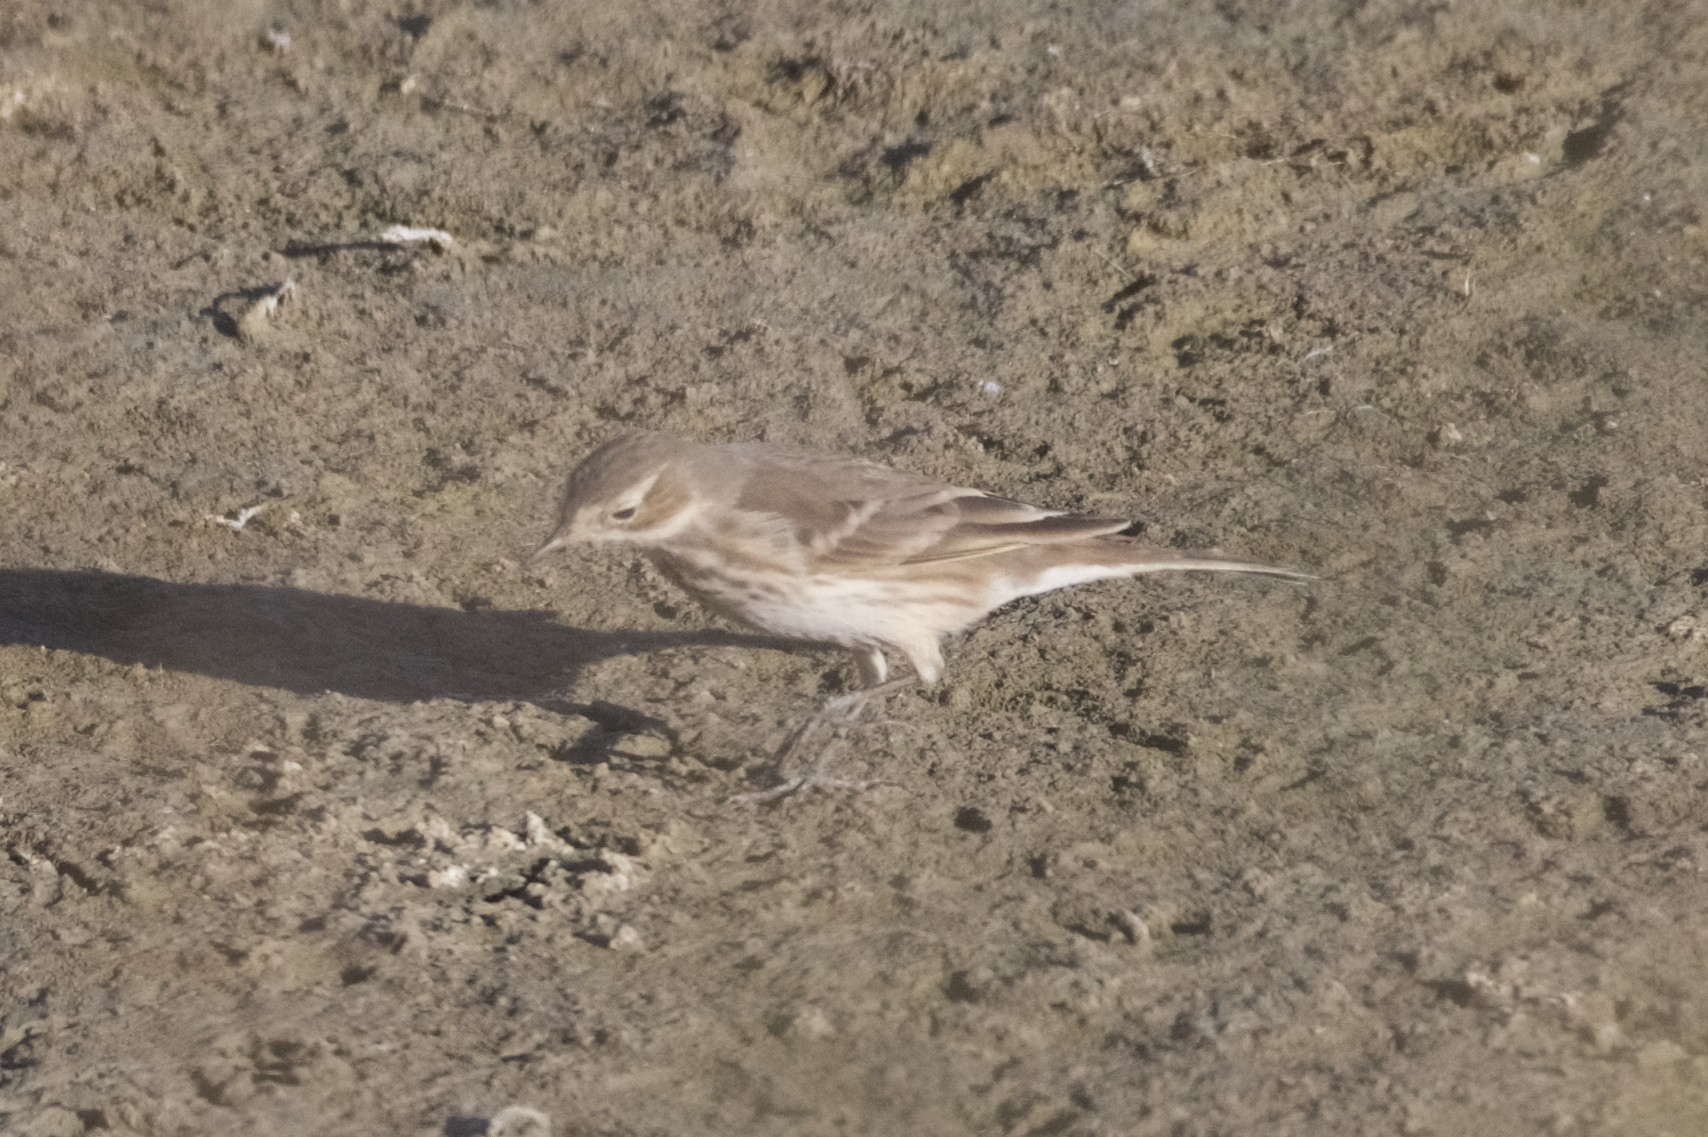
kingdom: Animalia
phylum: Chordata
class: Aves
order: Passeriformes
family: Motacillidae
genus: Anthus
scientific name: Anthus rubescens
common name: Buff-bellied pipit
